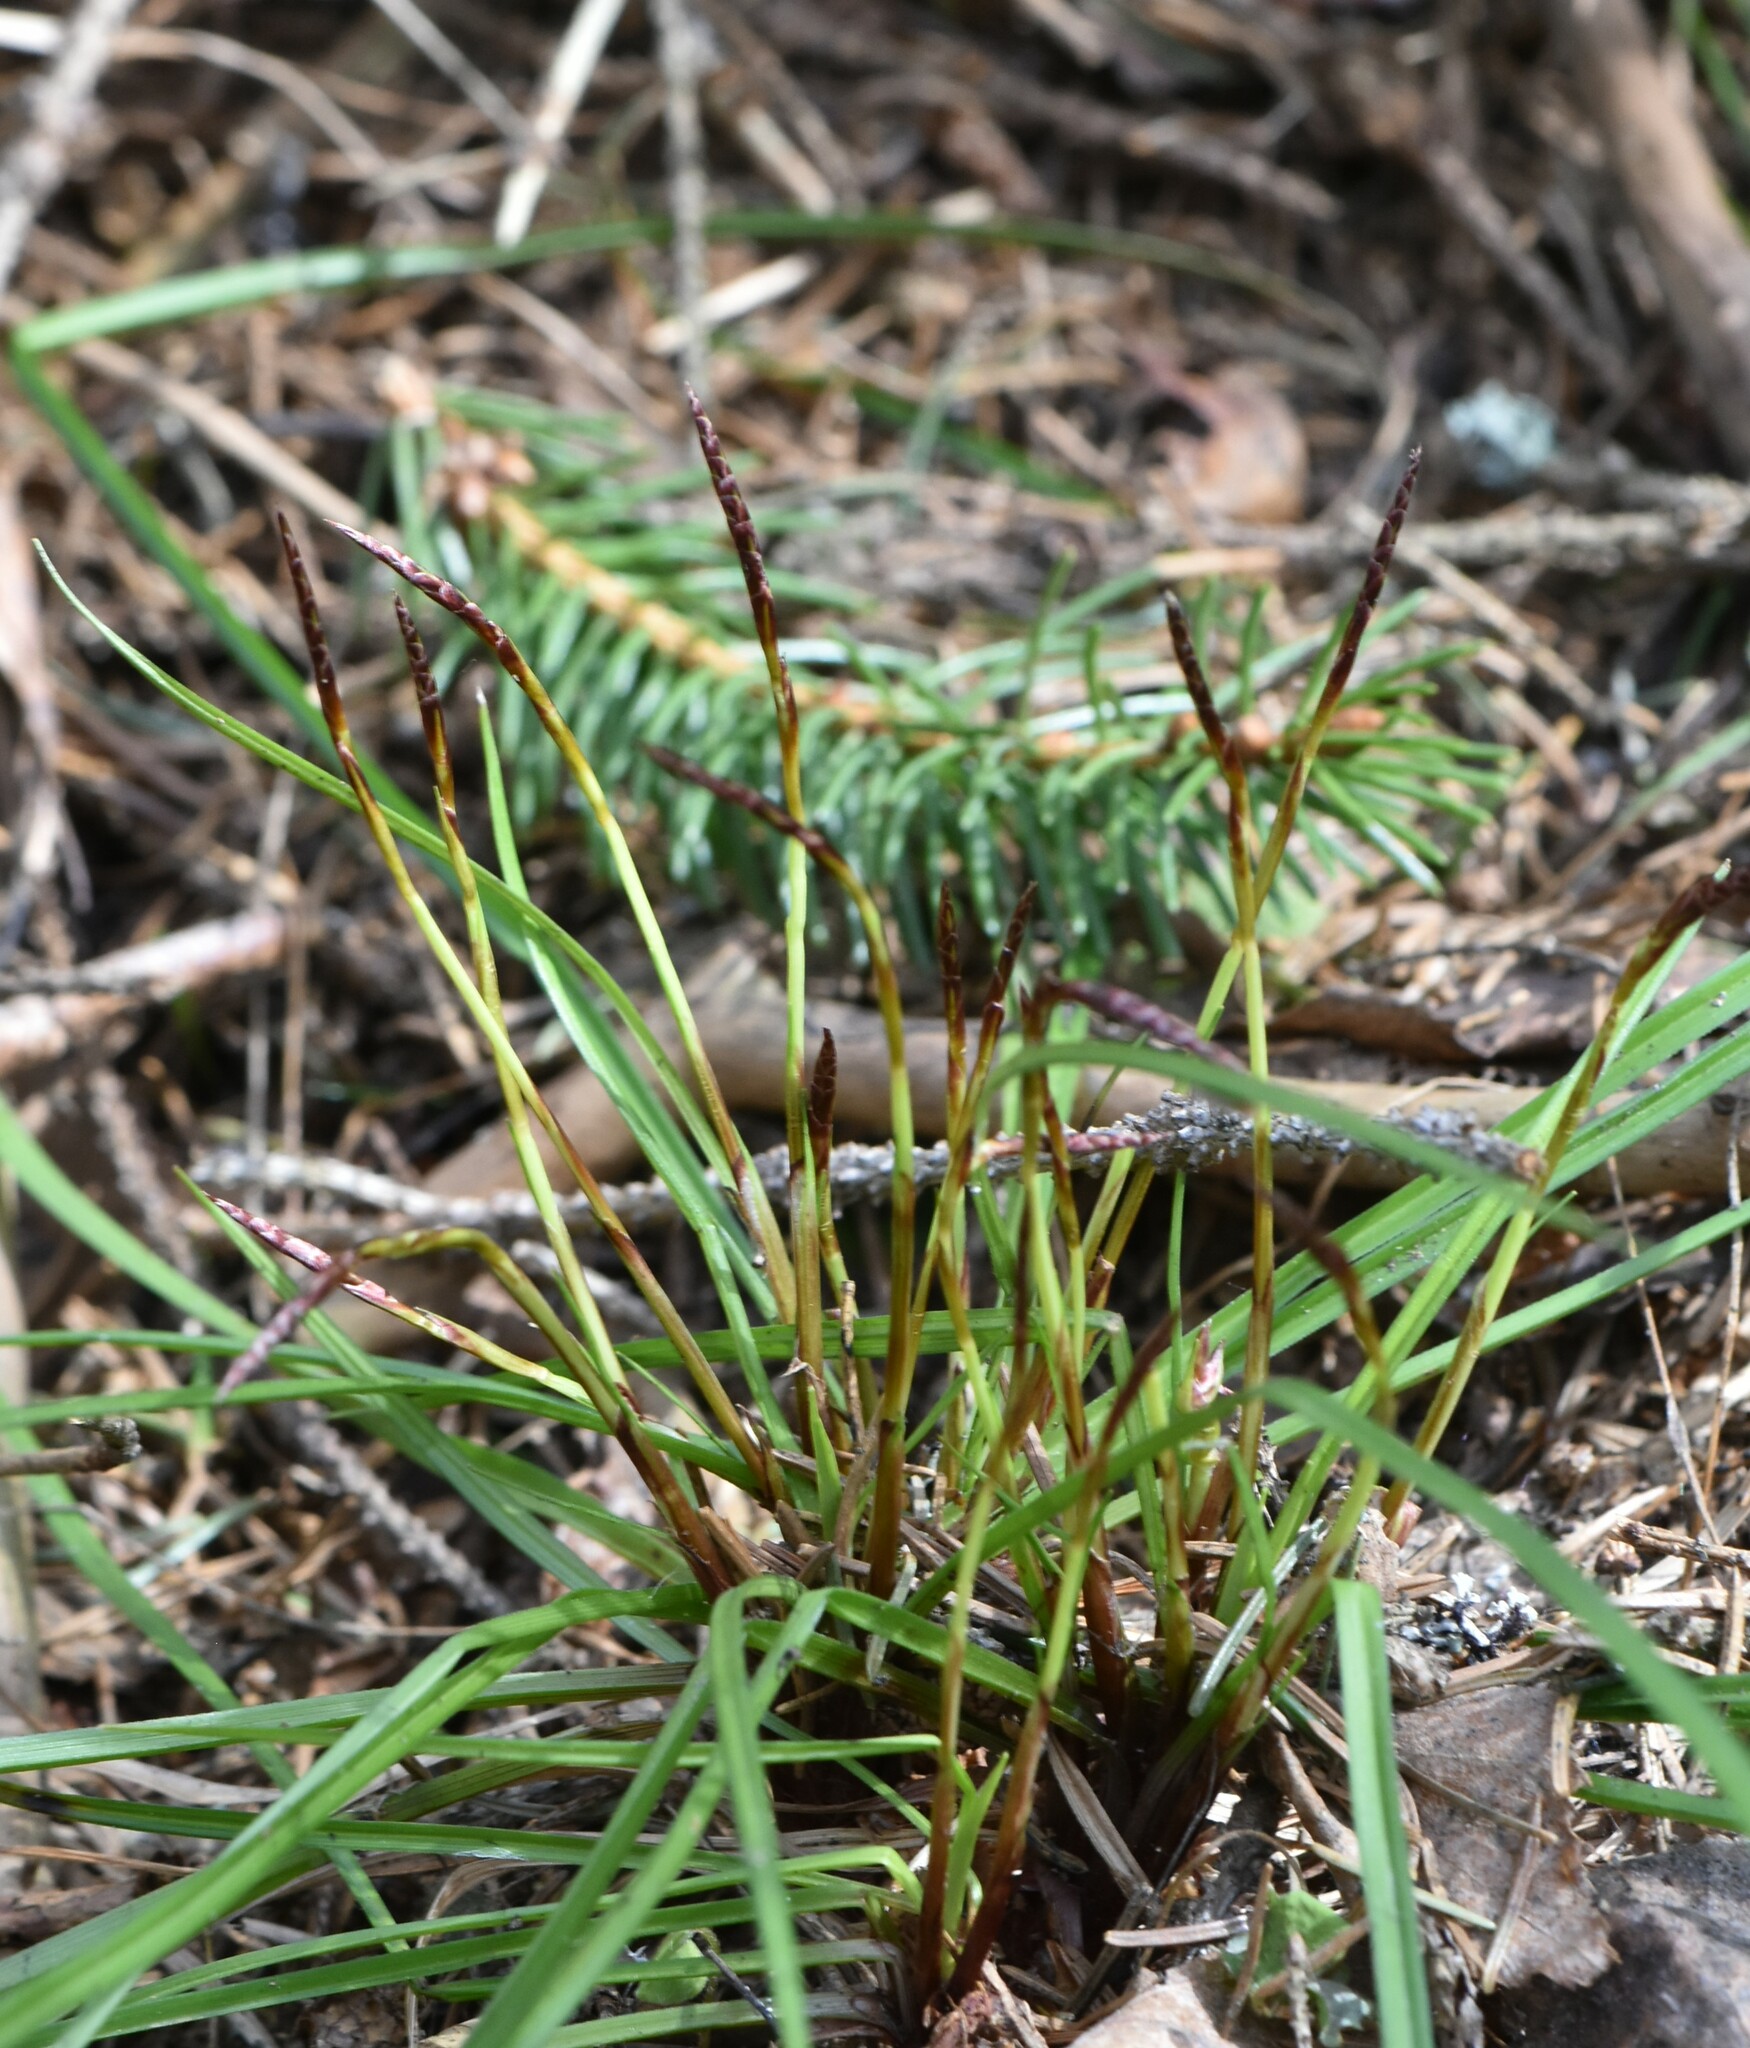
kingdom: Plantae
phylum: Tracheophyta
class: Liliopsida
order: Poales
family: Cyperaceae
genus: Carex
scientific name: Carex digitata
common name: Fingered sedge
